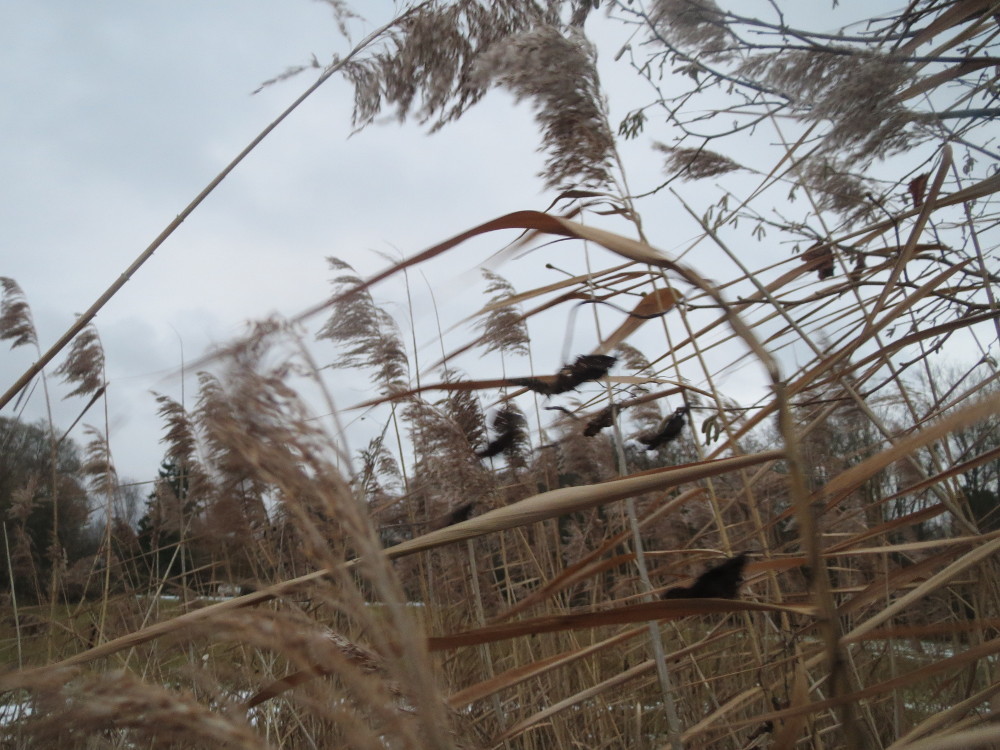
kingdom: Plantae
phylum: Tracheophyta
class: Liliopsida
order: Poales
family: Poaceae
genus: Phragmites
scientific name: Phragmites australis
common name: Common reed
